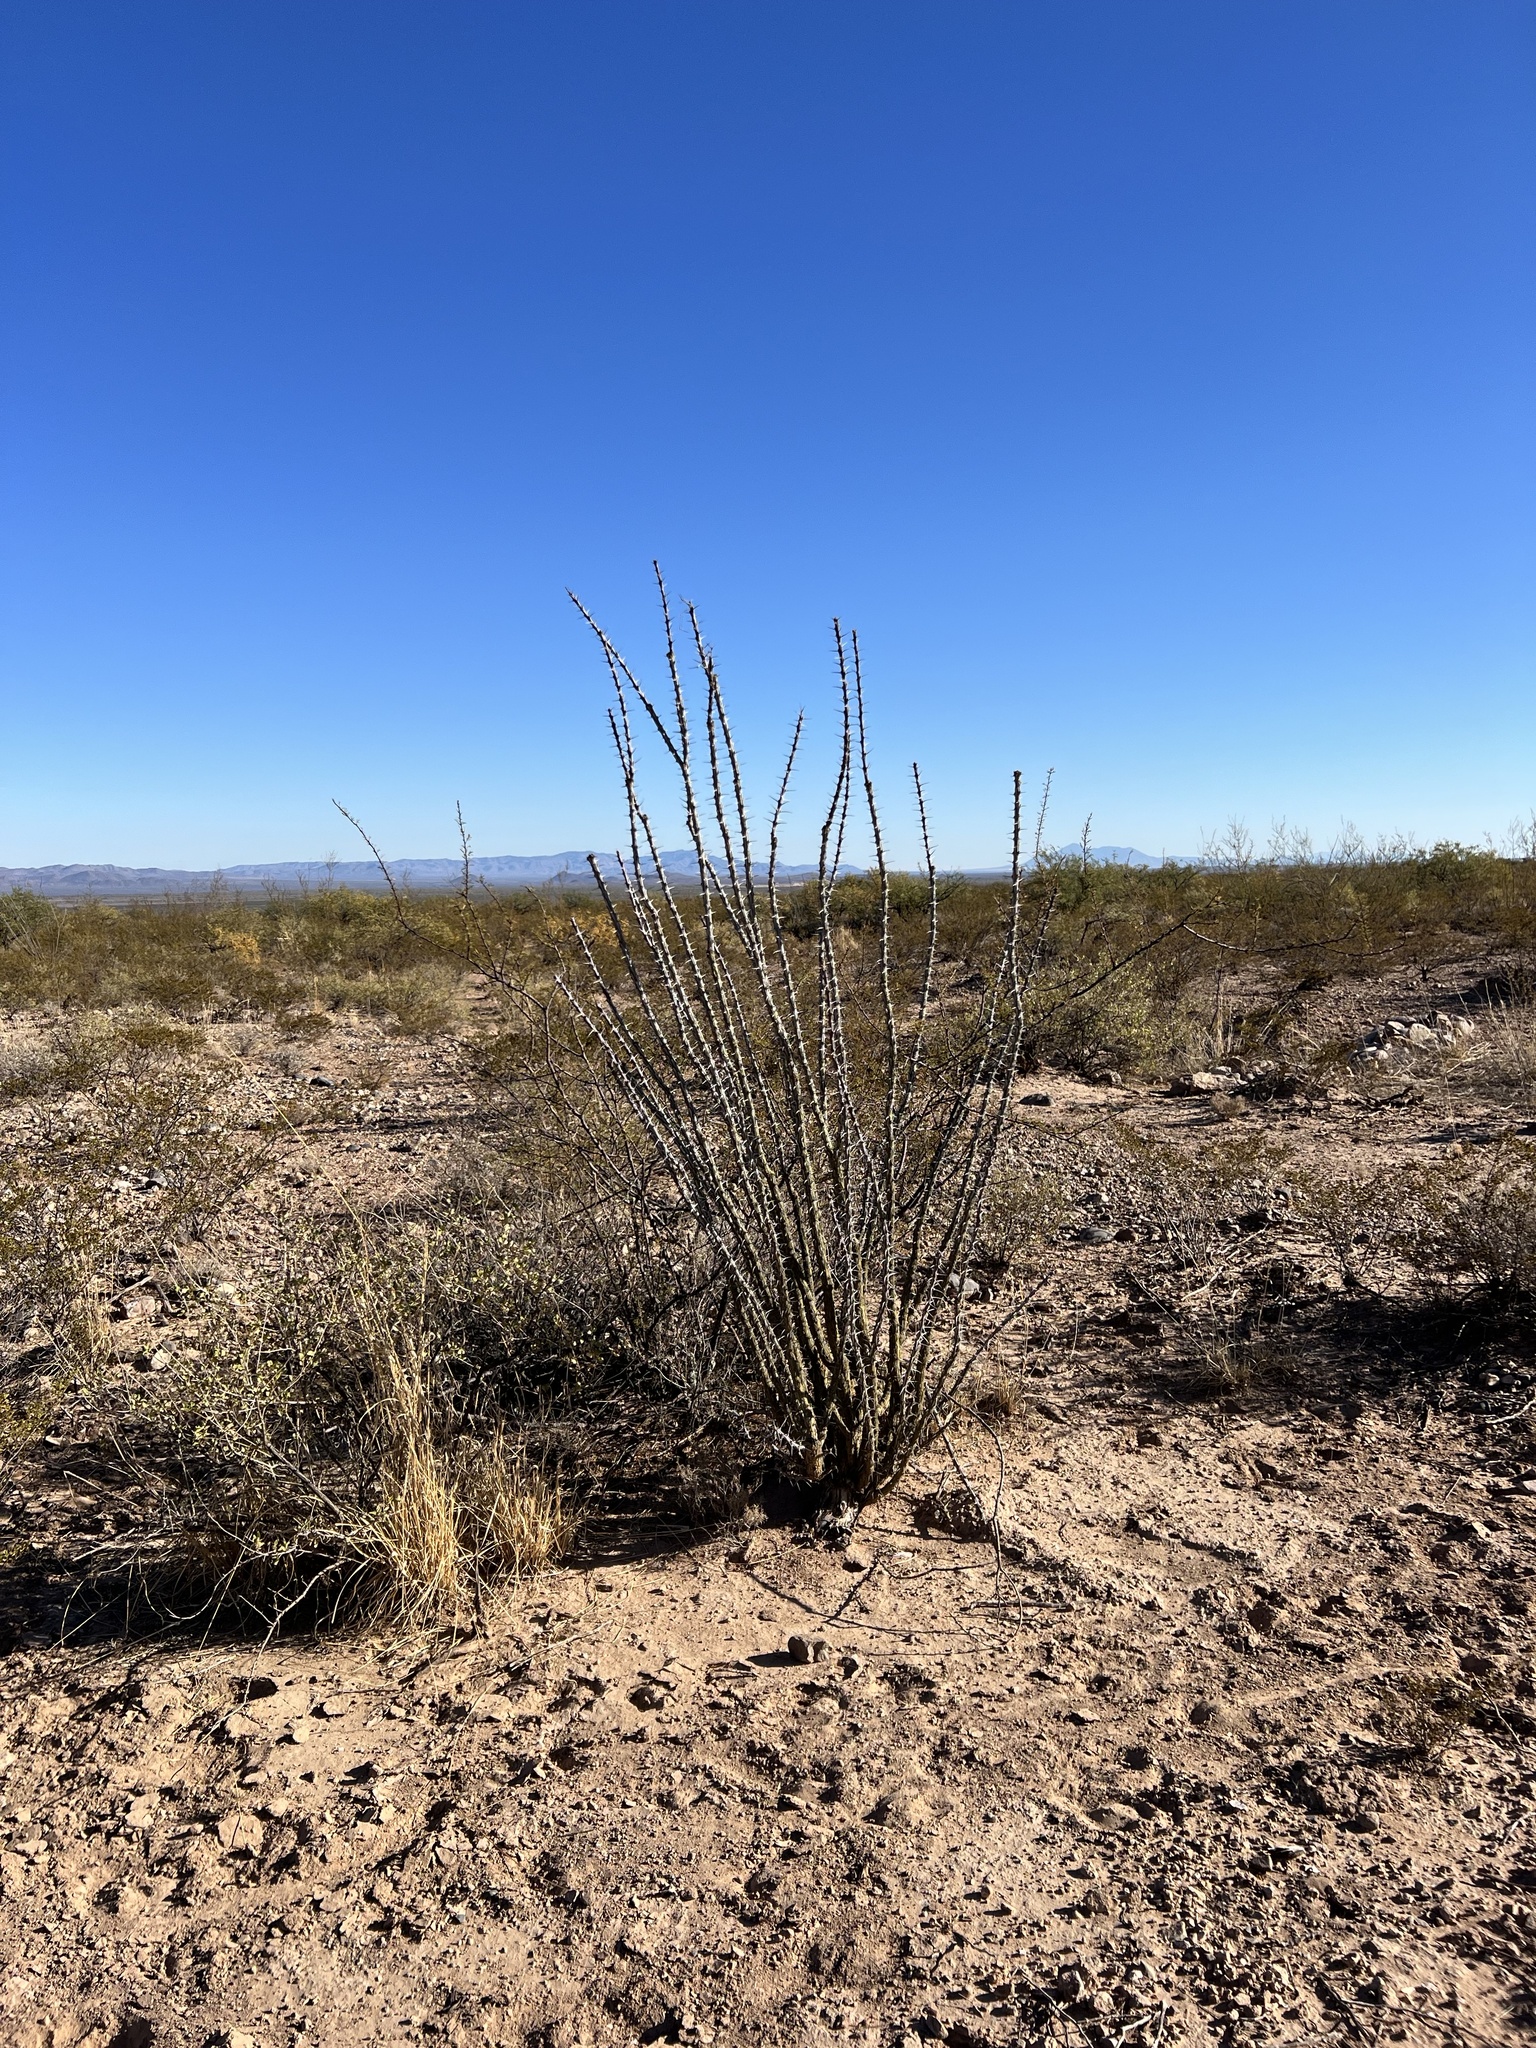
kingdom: Plantae
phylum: Tracheophyta
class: Magnoliopsida
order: Ericales
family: Fouquieriaceae
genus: Fouquieria
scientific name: Fouquieria splendens
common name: Vine-cactus
